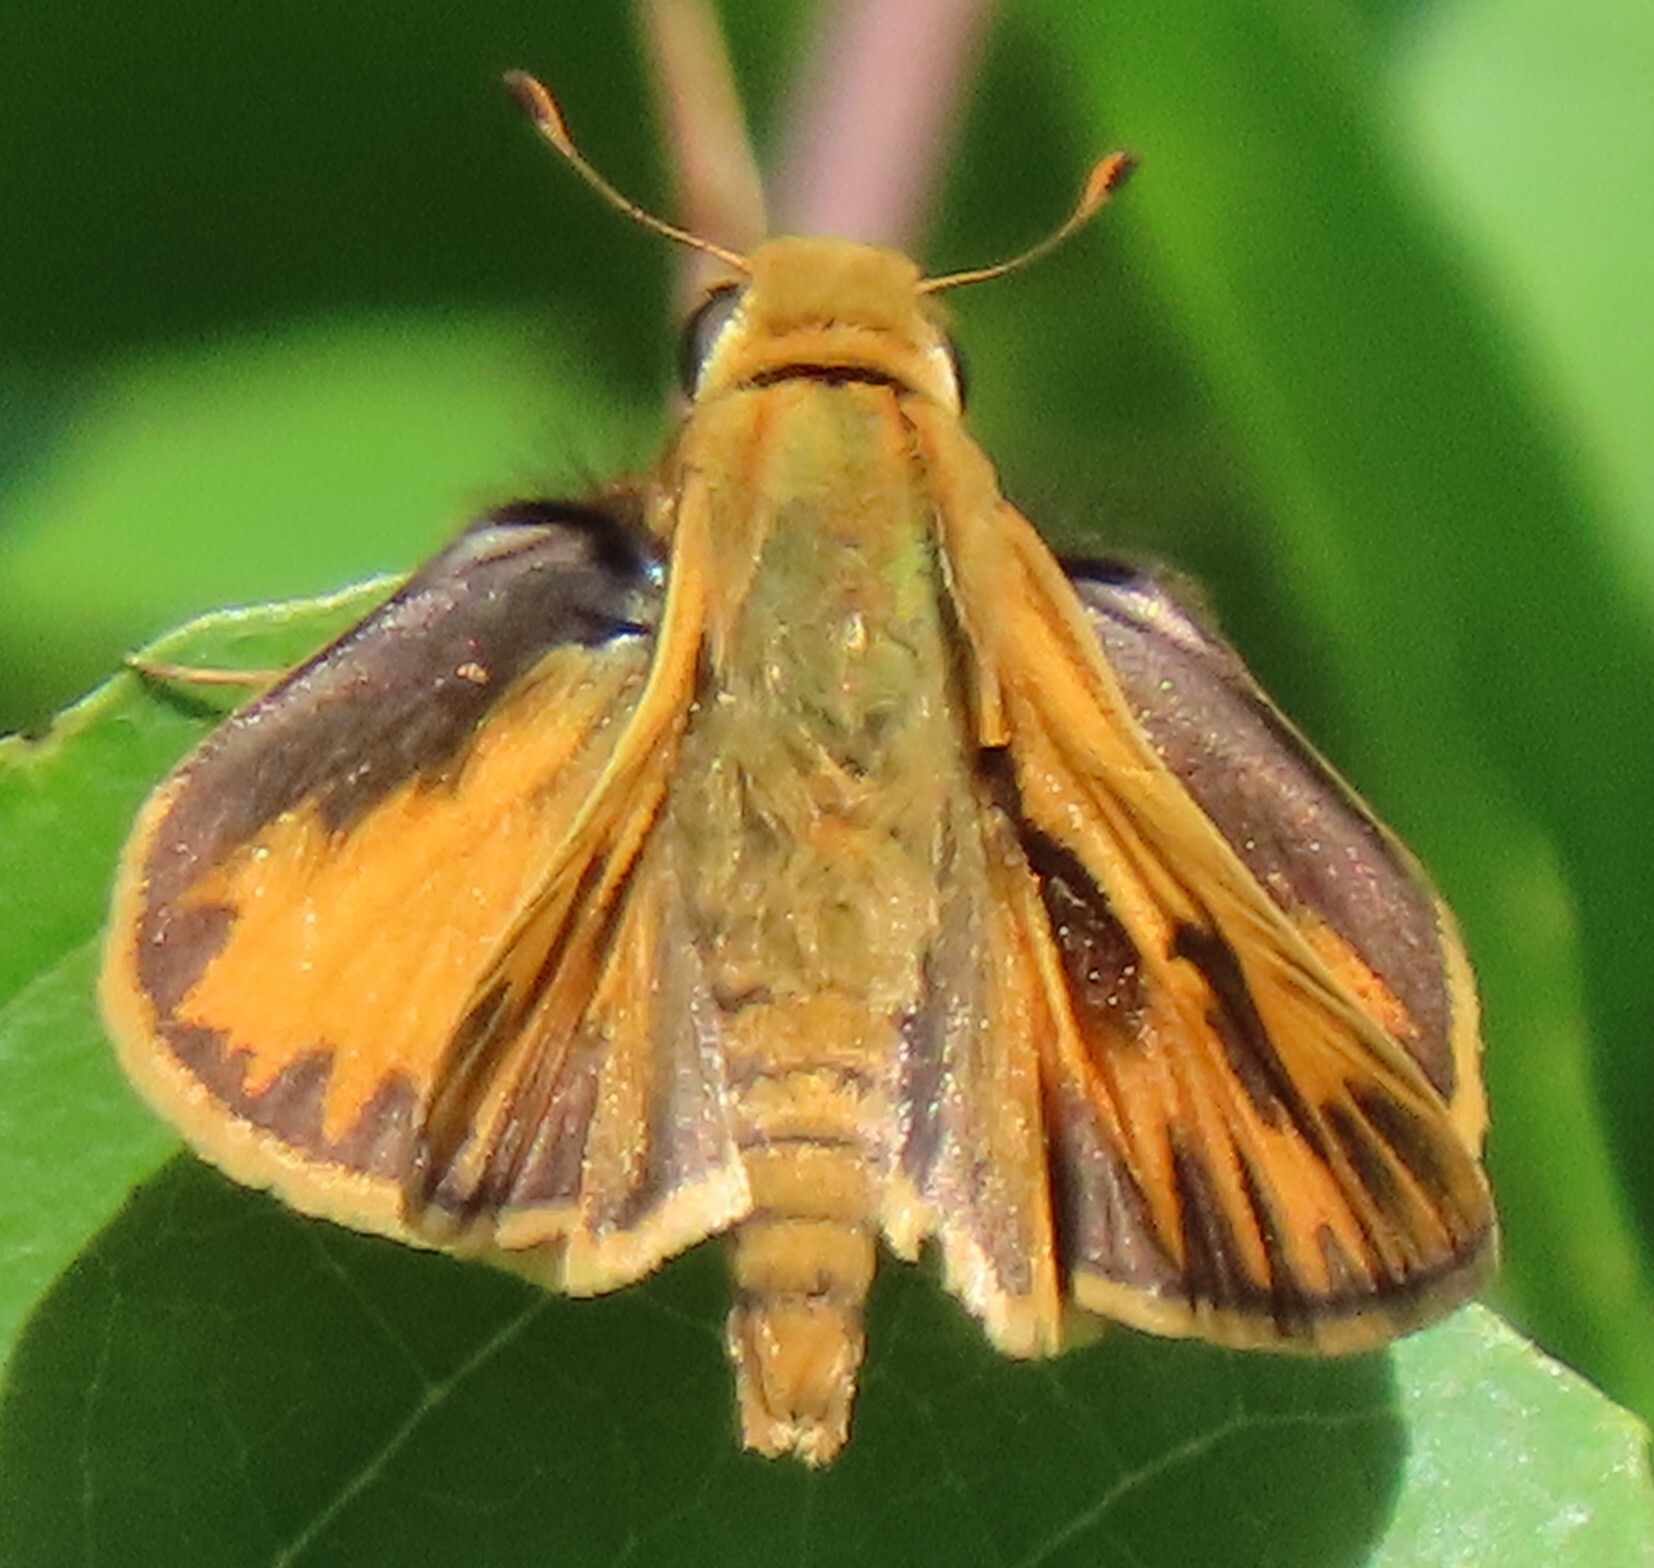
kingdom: Animalia
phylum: Arthropoda
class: Insecta
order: Lepidoptera
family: Hesperiidae
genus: Hylephila
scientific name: Hylephila phyleus
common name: Fiery skipper
